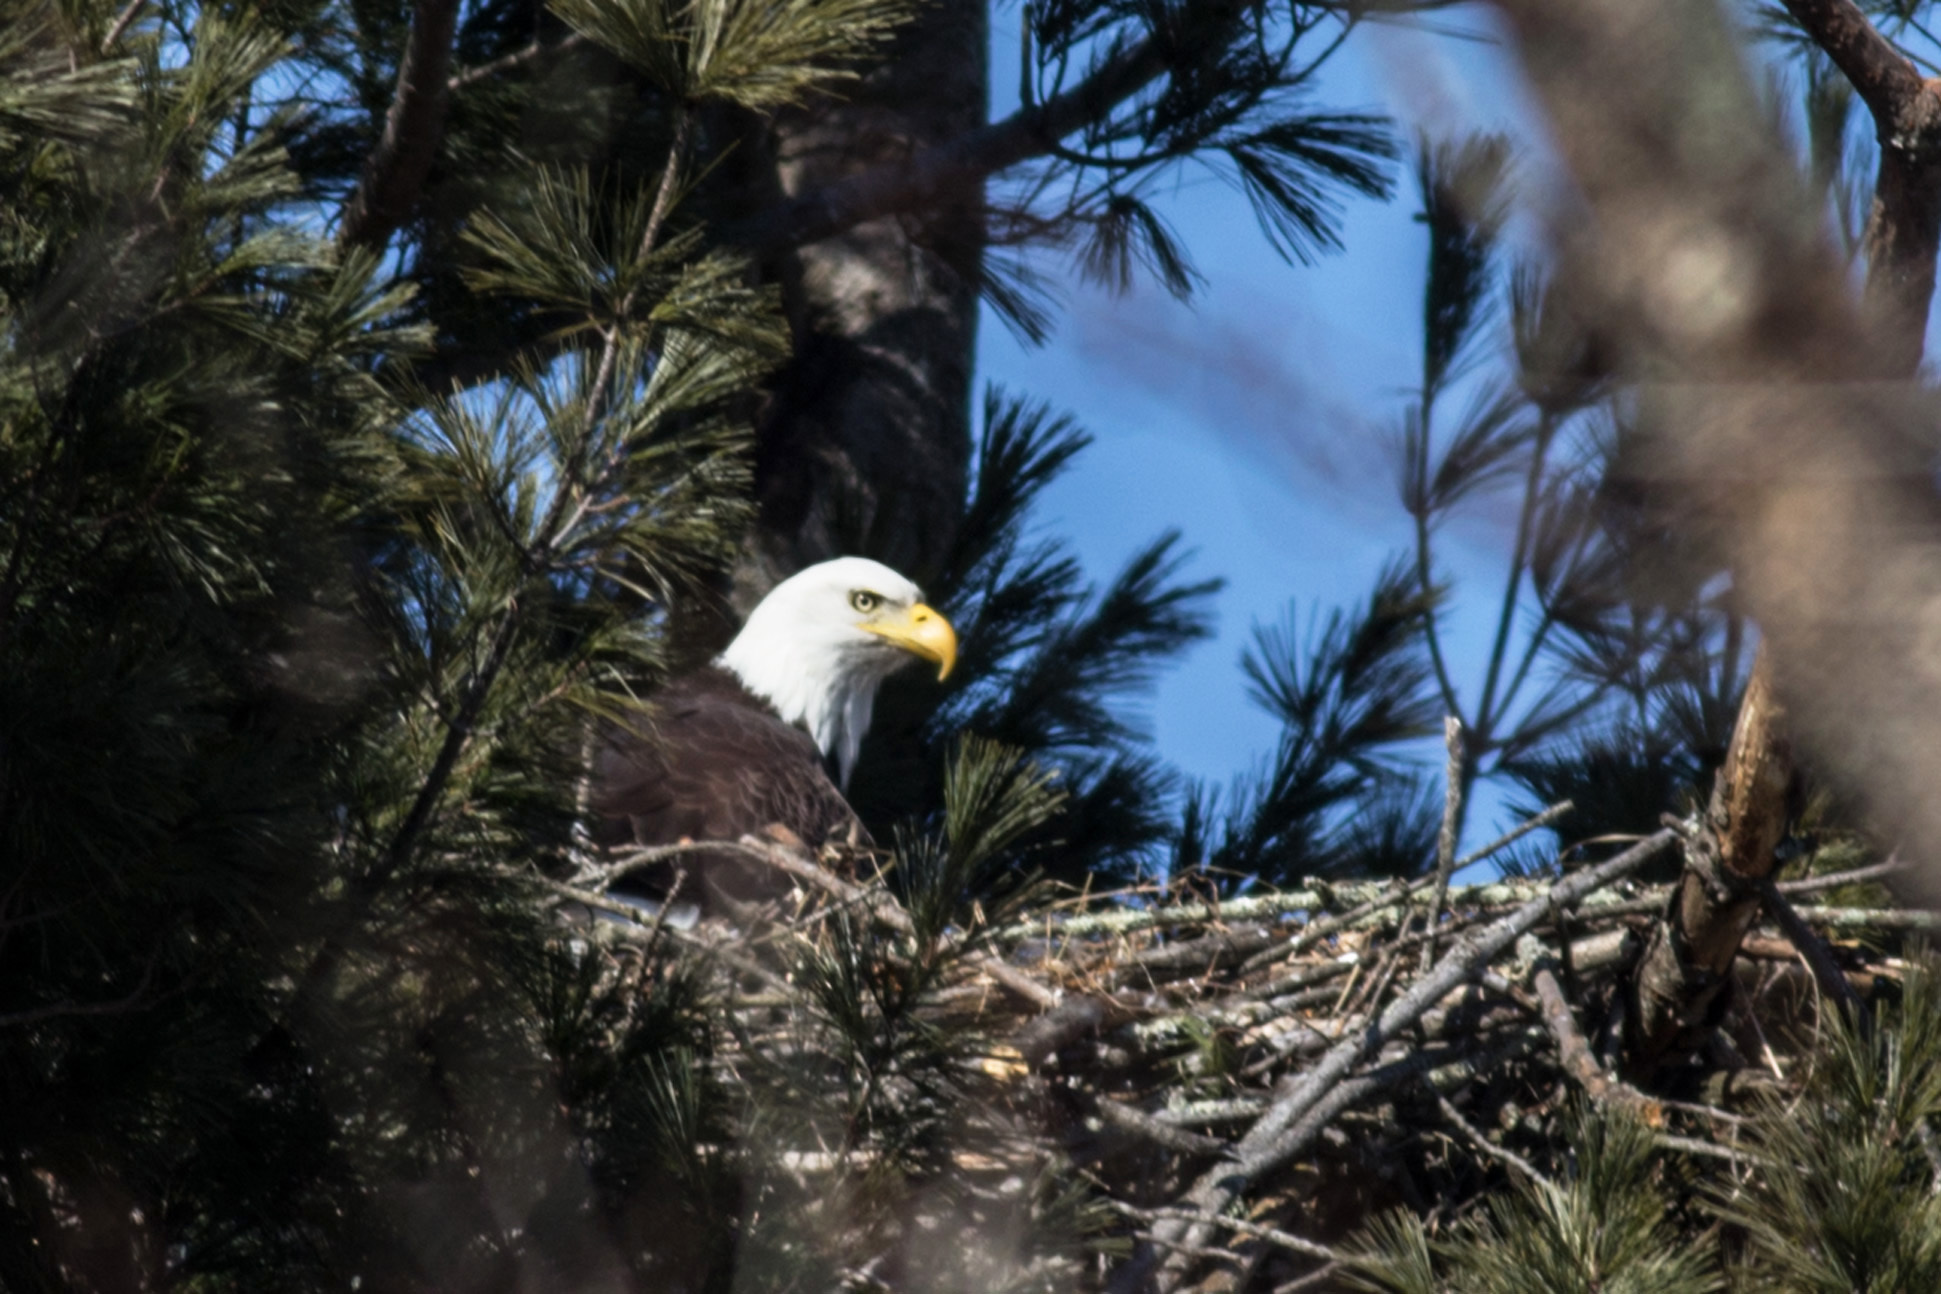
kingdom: Animalia
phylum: Chordata
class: Aves
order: Accipitriformes
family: Accipitridae
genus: Haliaeetus
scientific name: Haliaeetus leucocephalus
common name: Bald eagle
